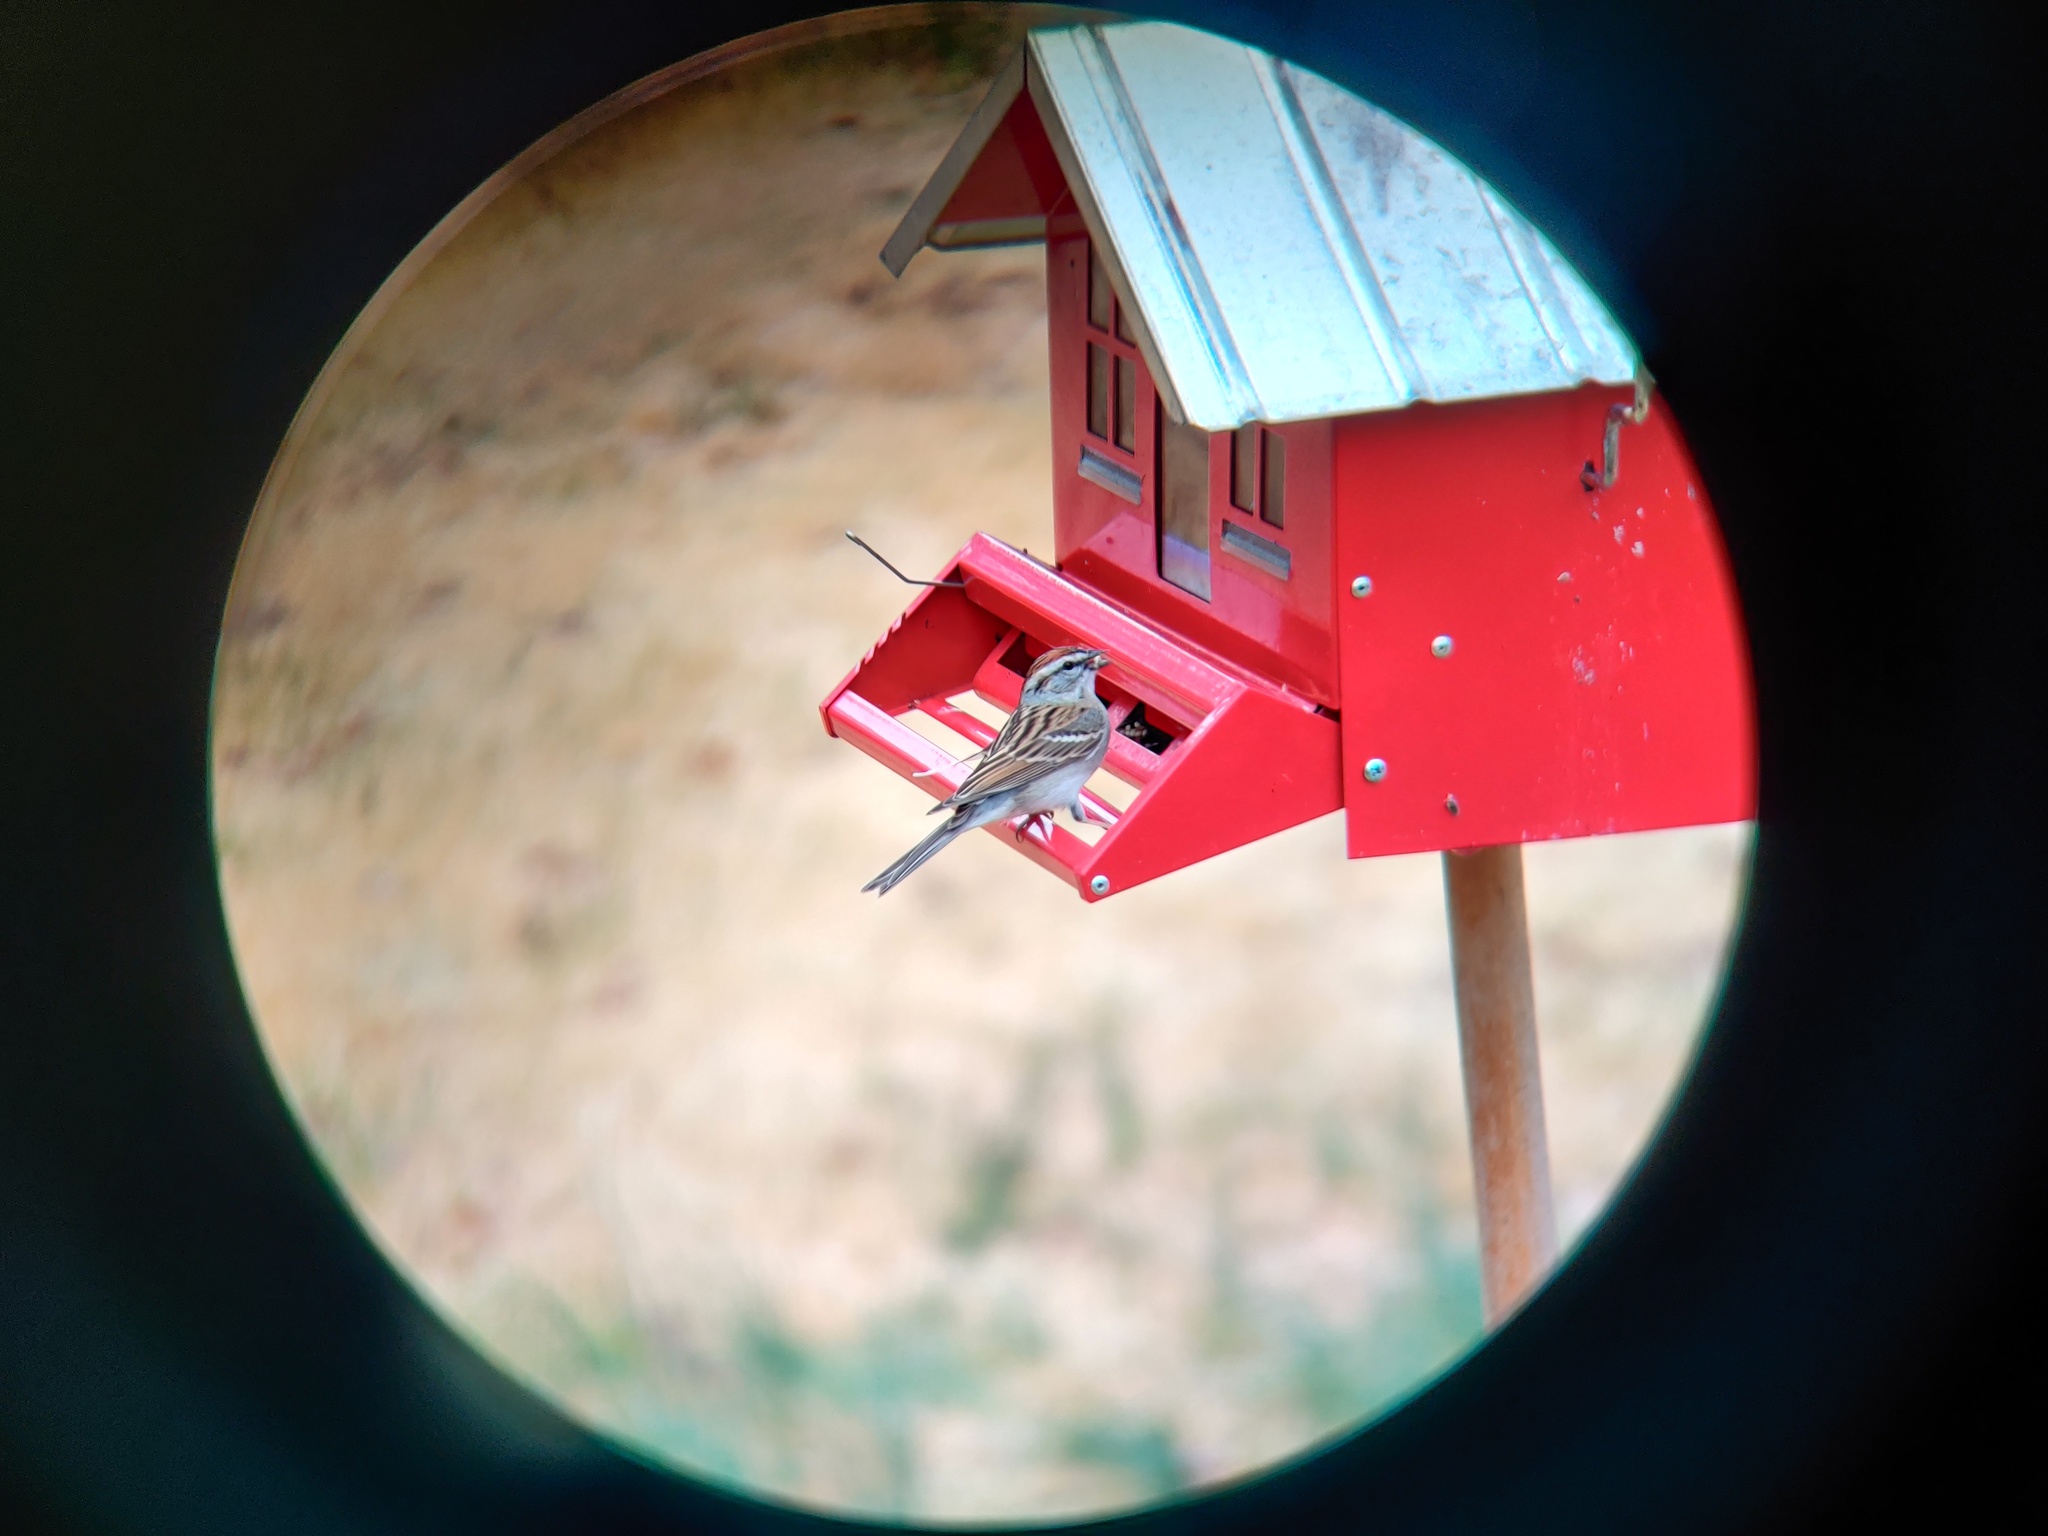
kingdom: Animalia
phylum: Chordata
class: Aves
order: Passeriformes
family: Passerellidae
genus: Spizella
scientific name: Spizella passerina
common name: Chipping sparrow
